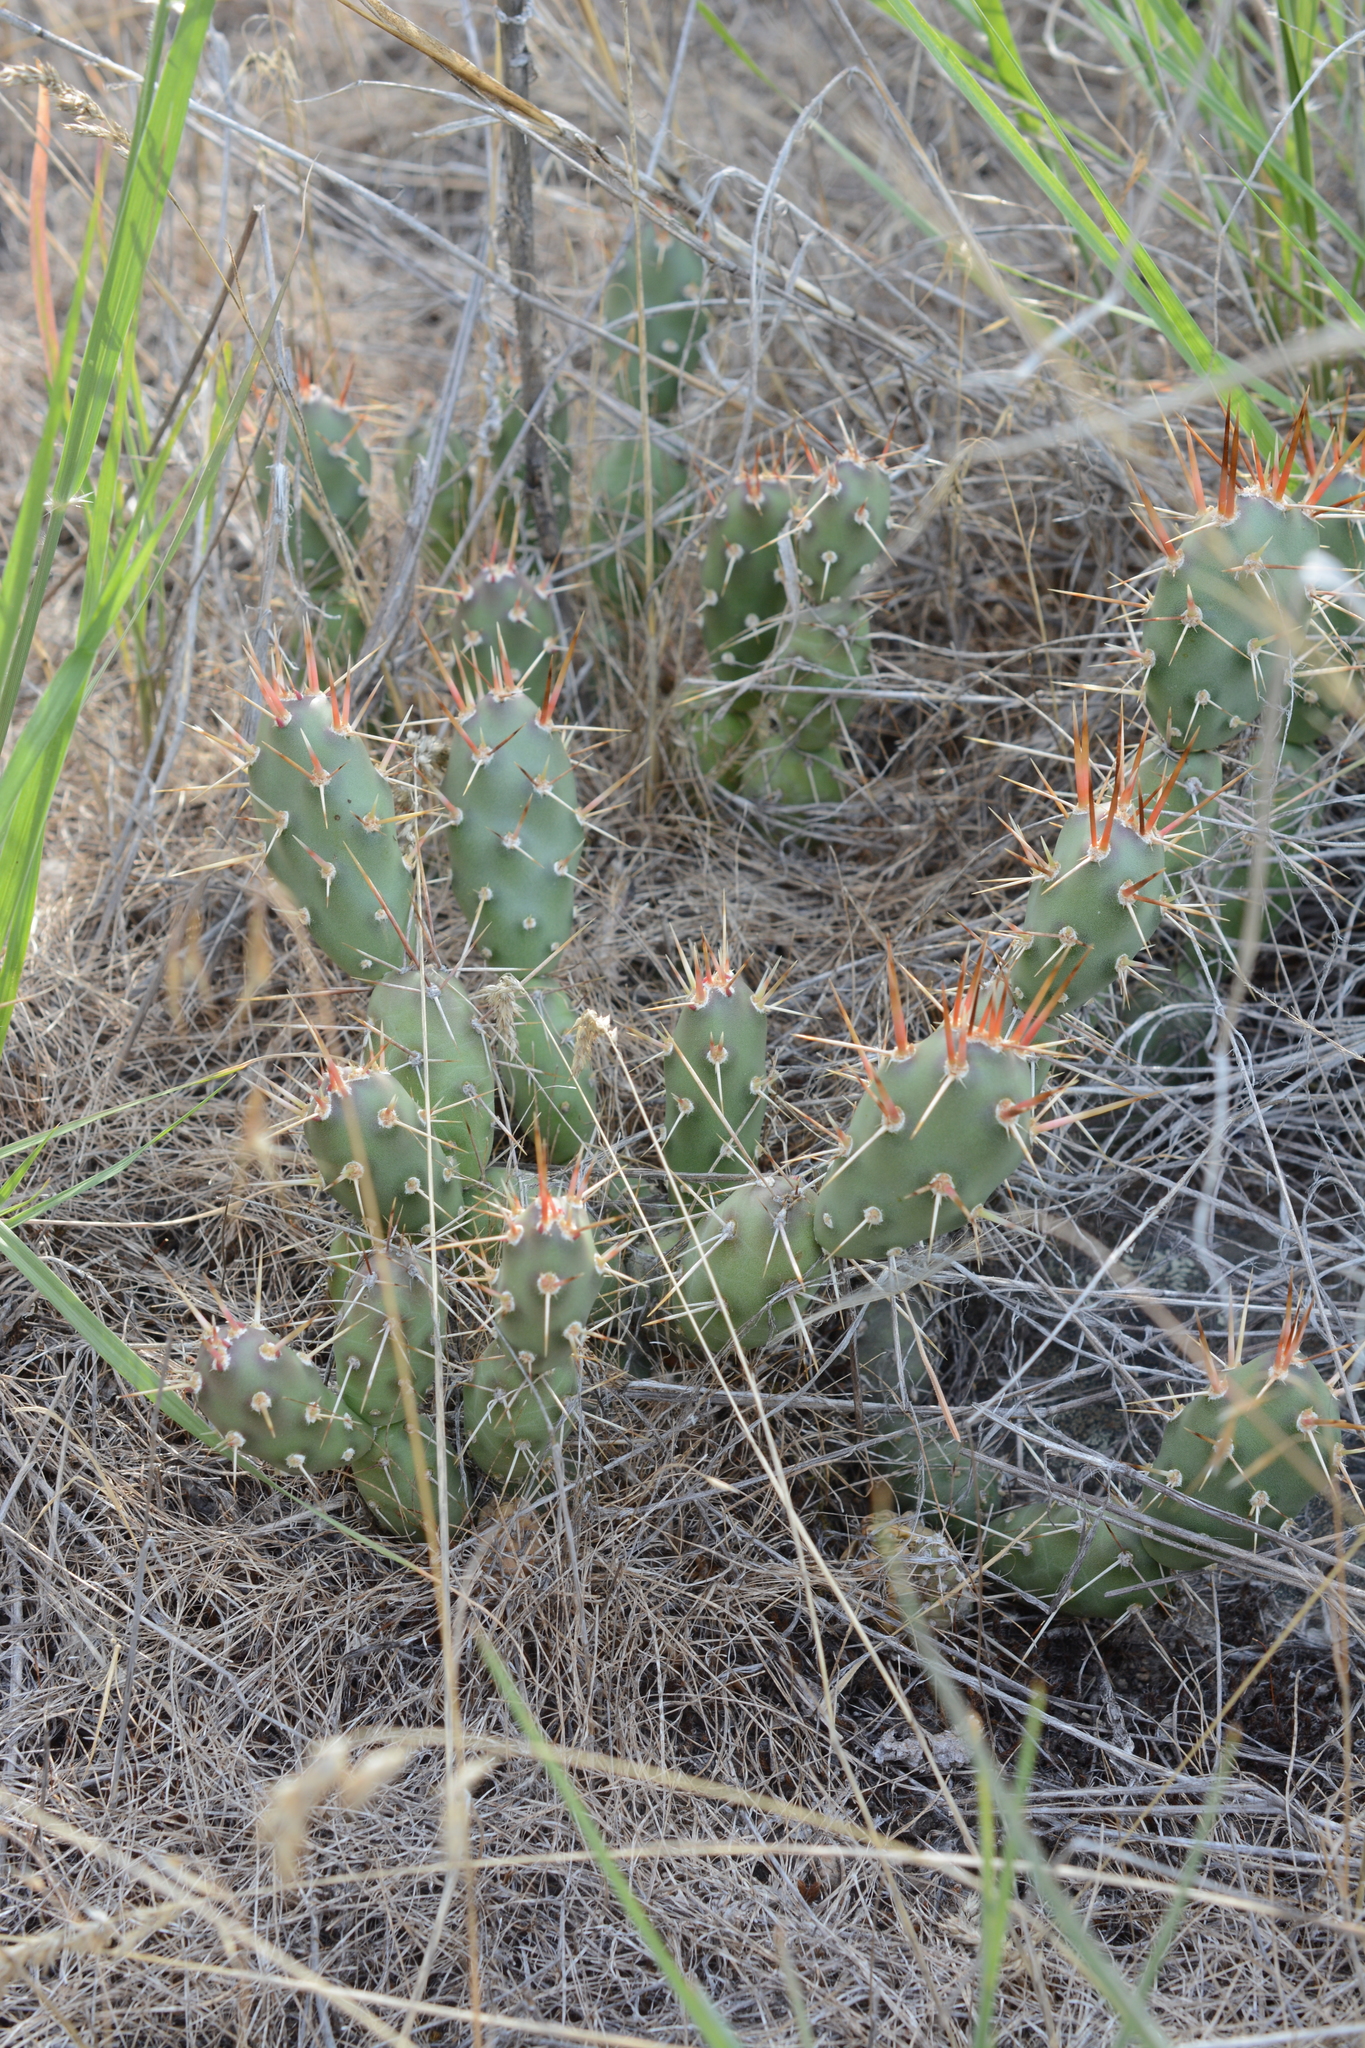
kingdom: Plantae
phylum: Tracheophyta
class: Magnoliopsida
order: Caryophyllales
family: Cactaceae
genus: Opuntia
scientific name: Opuntia fragilis
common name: Brittle cactus
